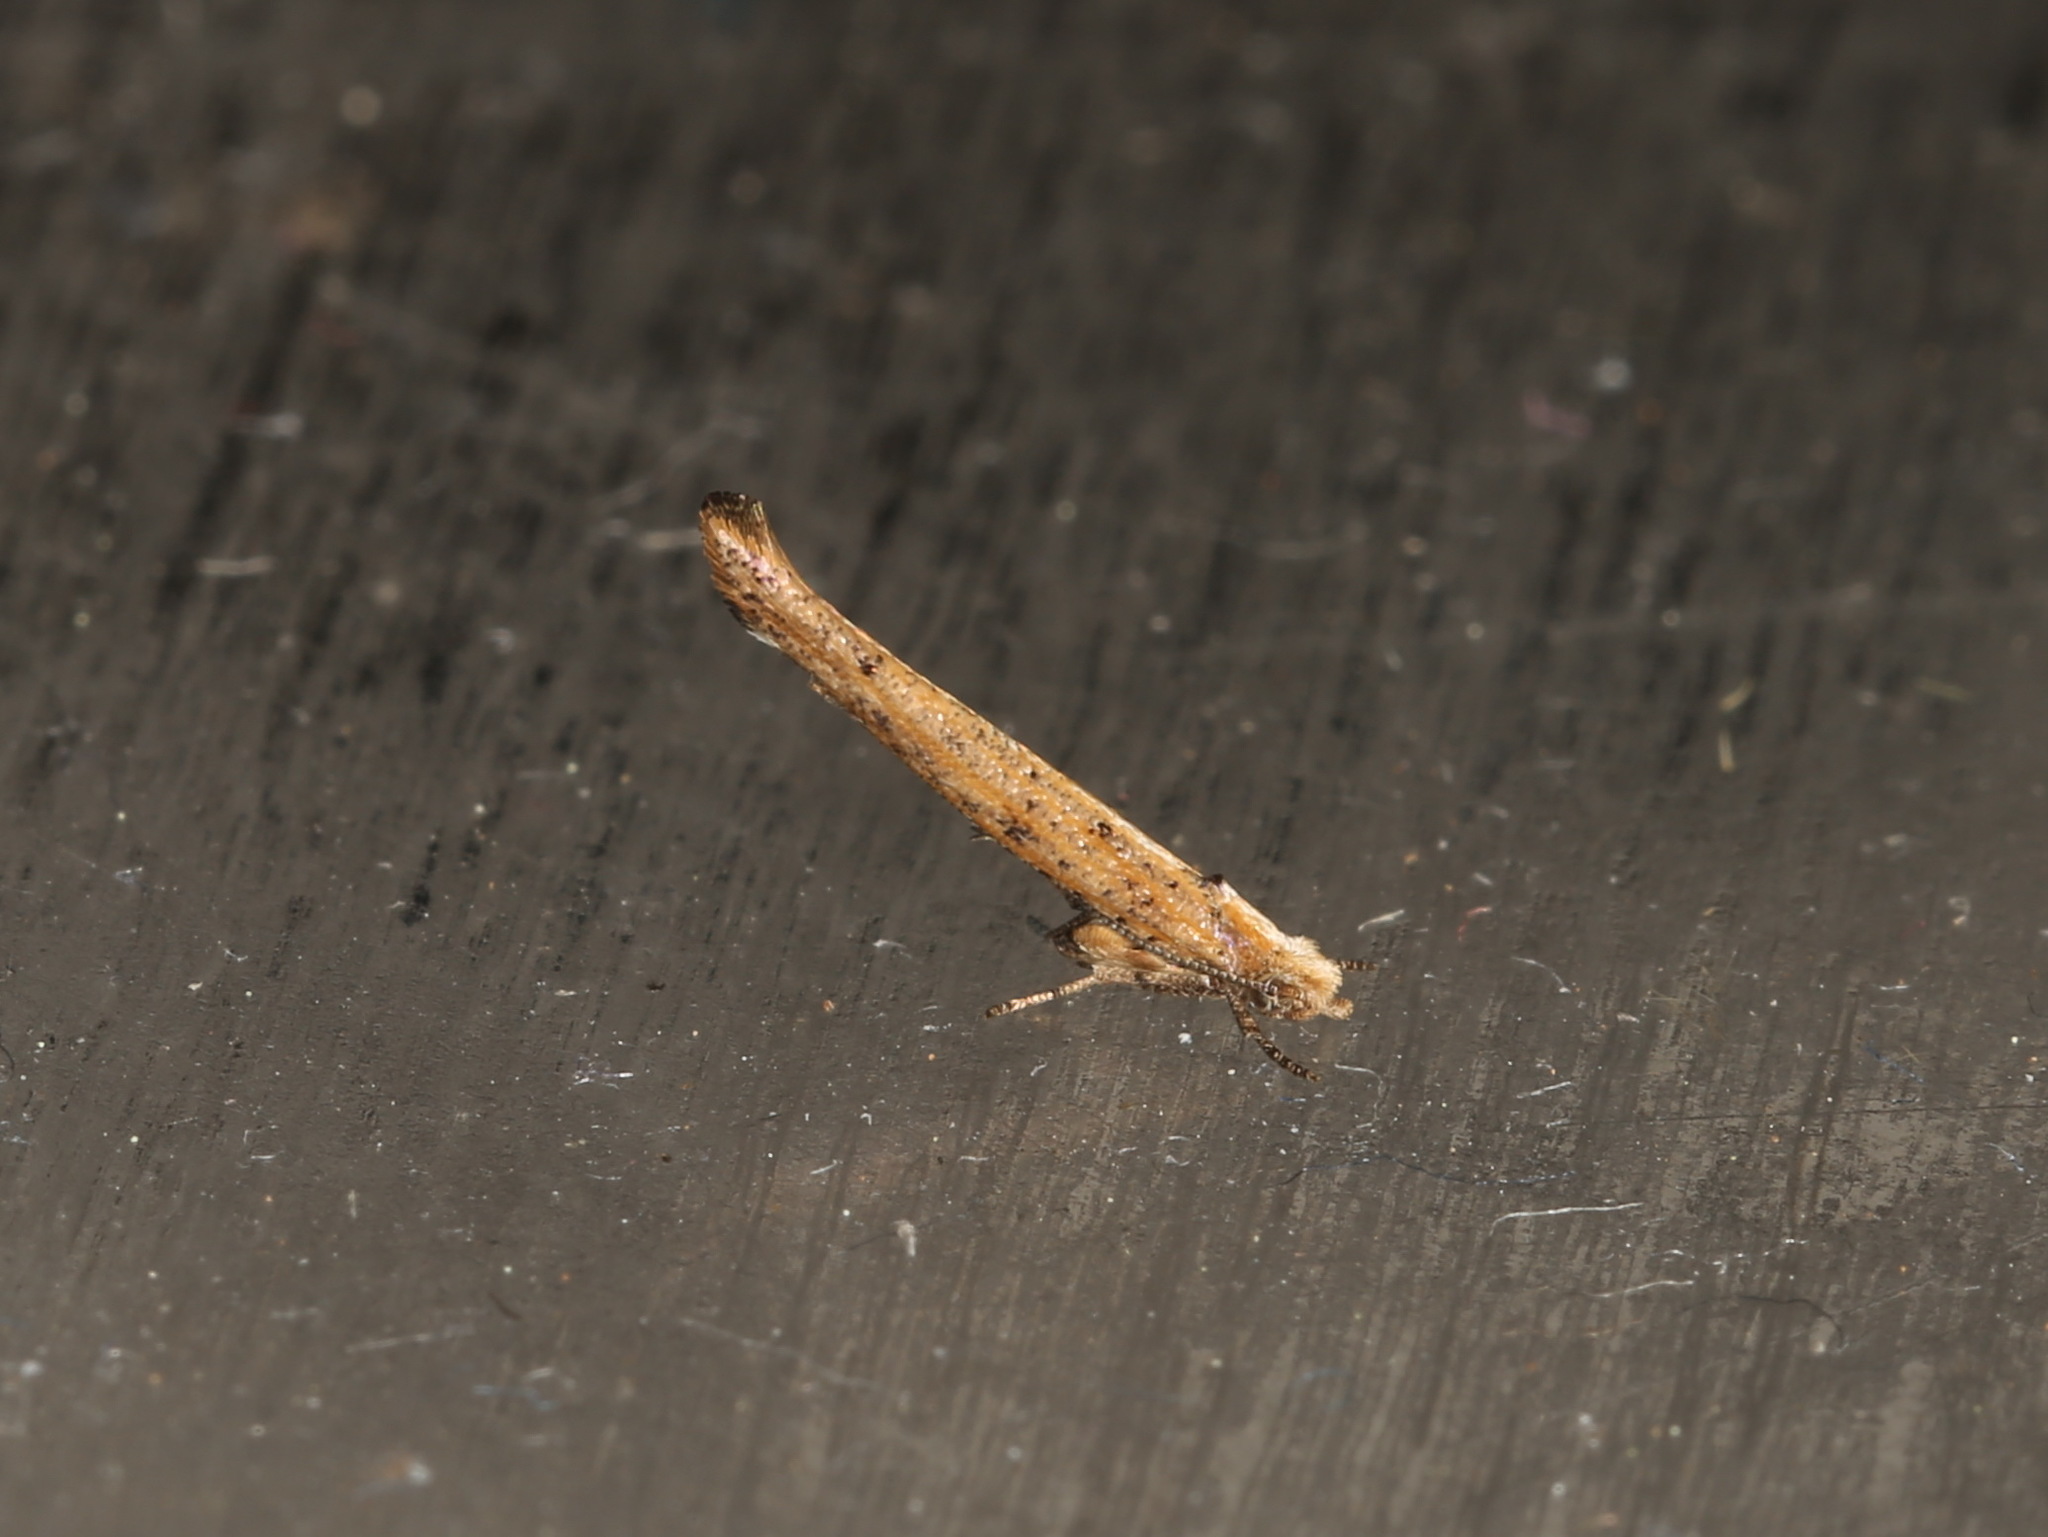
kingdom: Animalia
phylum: Arthropoda
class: Insecta
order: Lepidoptera
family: Yponomeutidae
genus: Zelleria
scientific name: Zelleria cynetica
